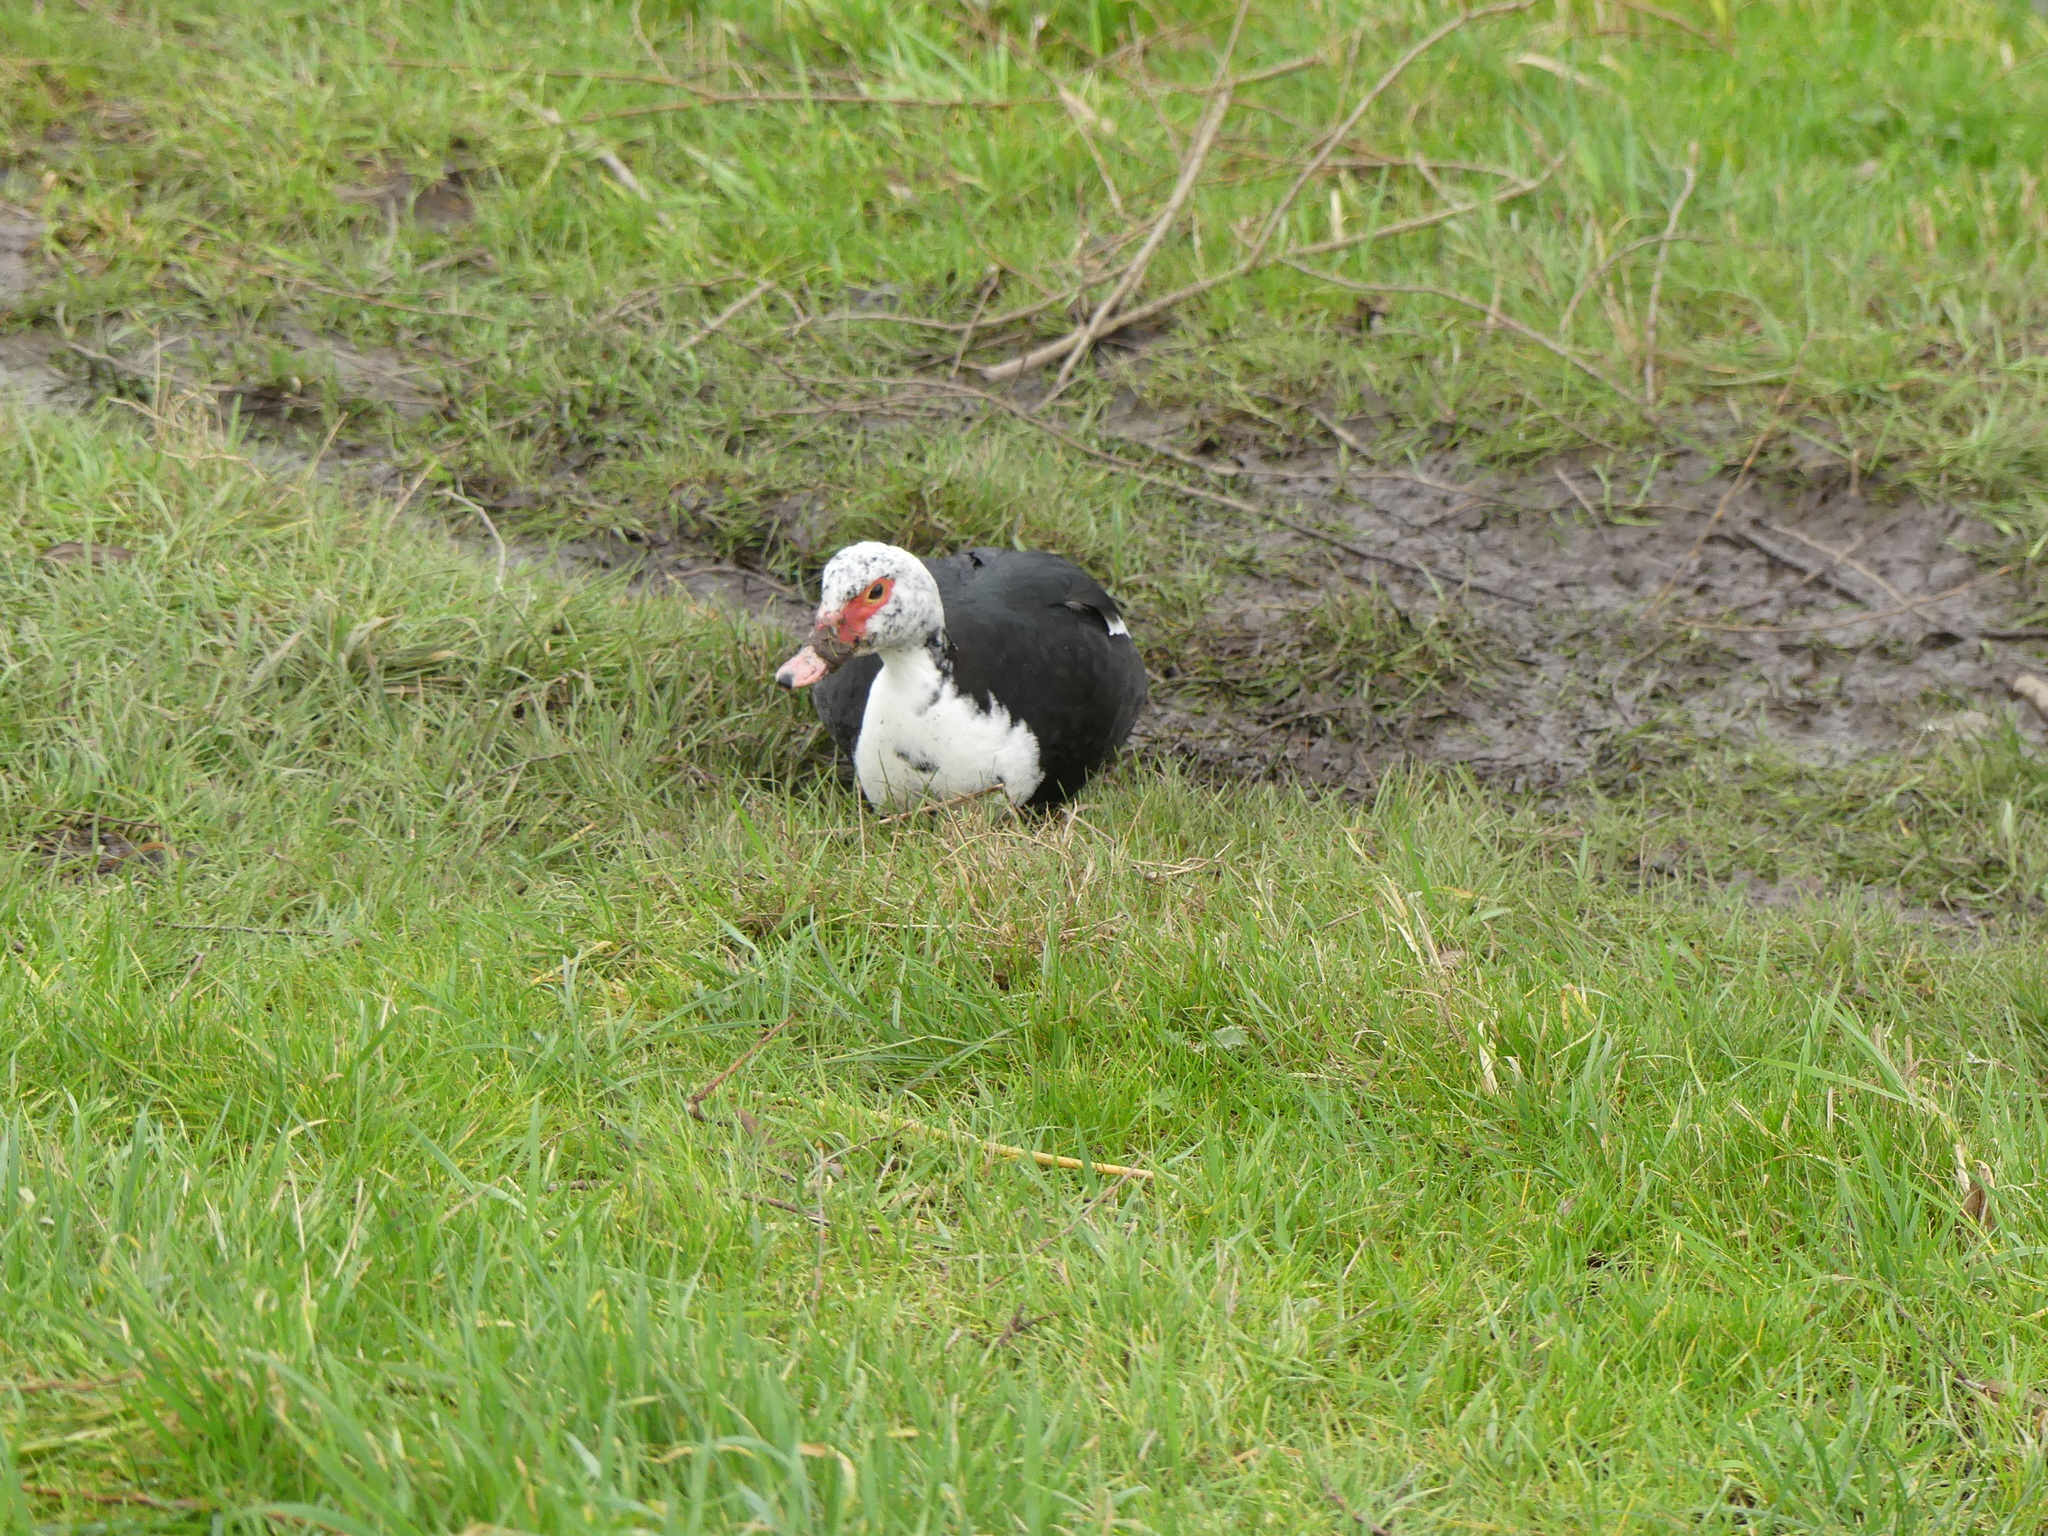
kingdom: Animalia
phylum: Chordata
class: Aves
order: Anseriformes
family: Anatidae
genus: Cairina
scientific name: Cairina moschata
